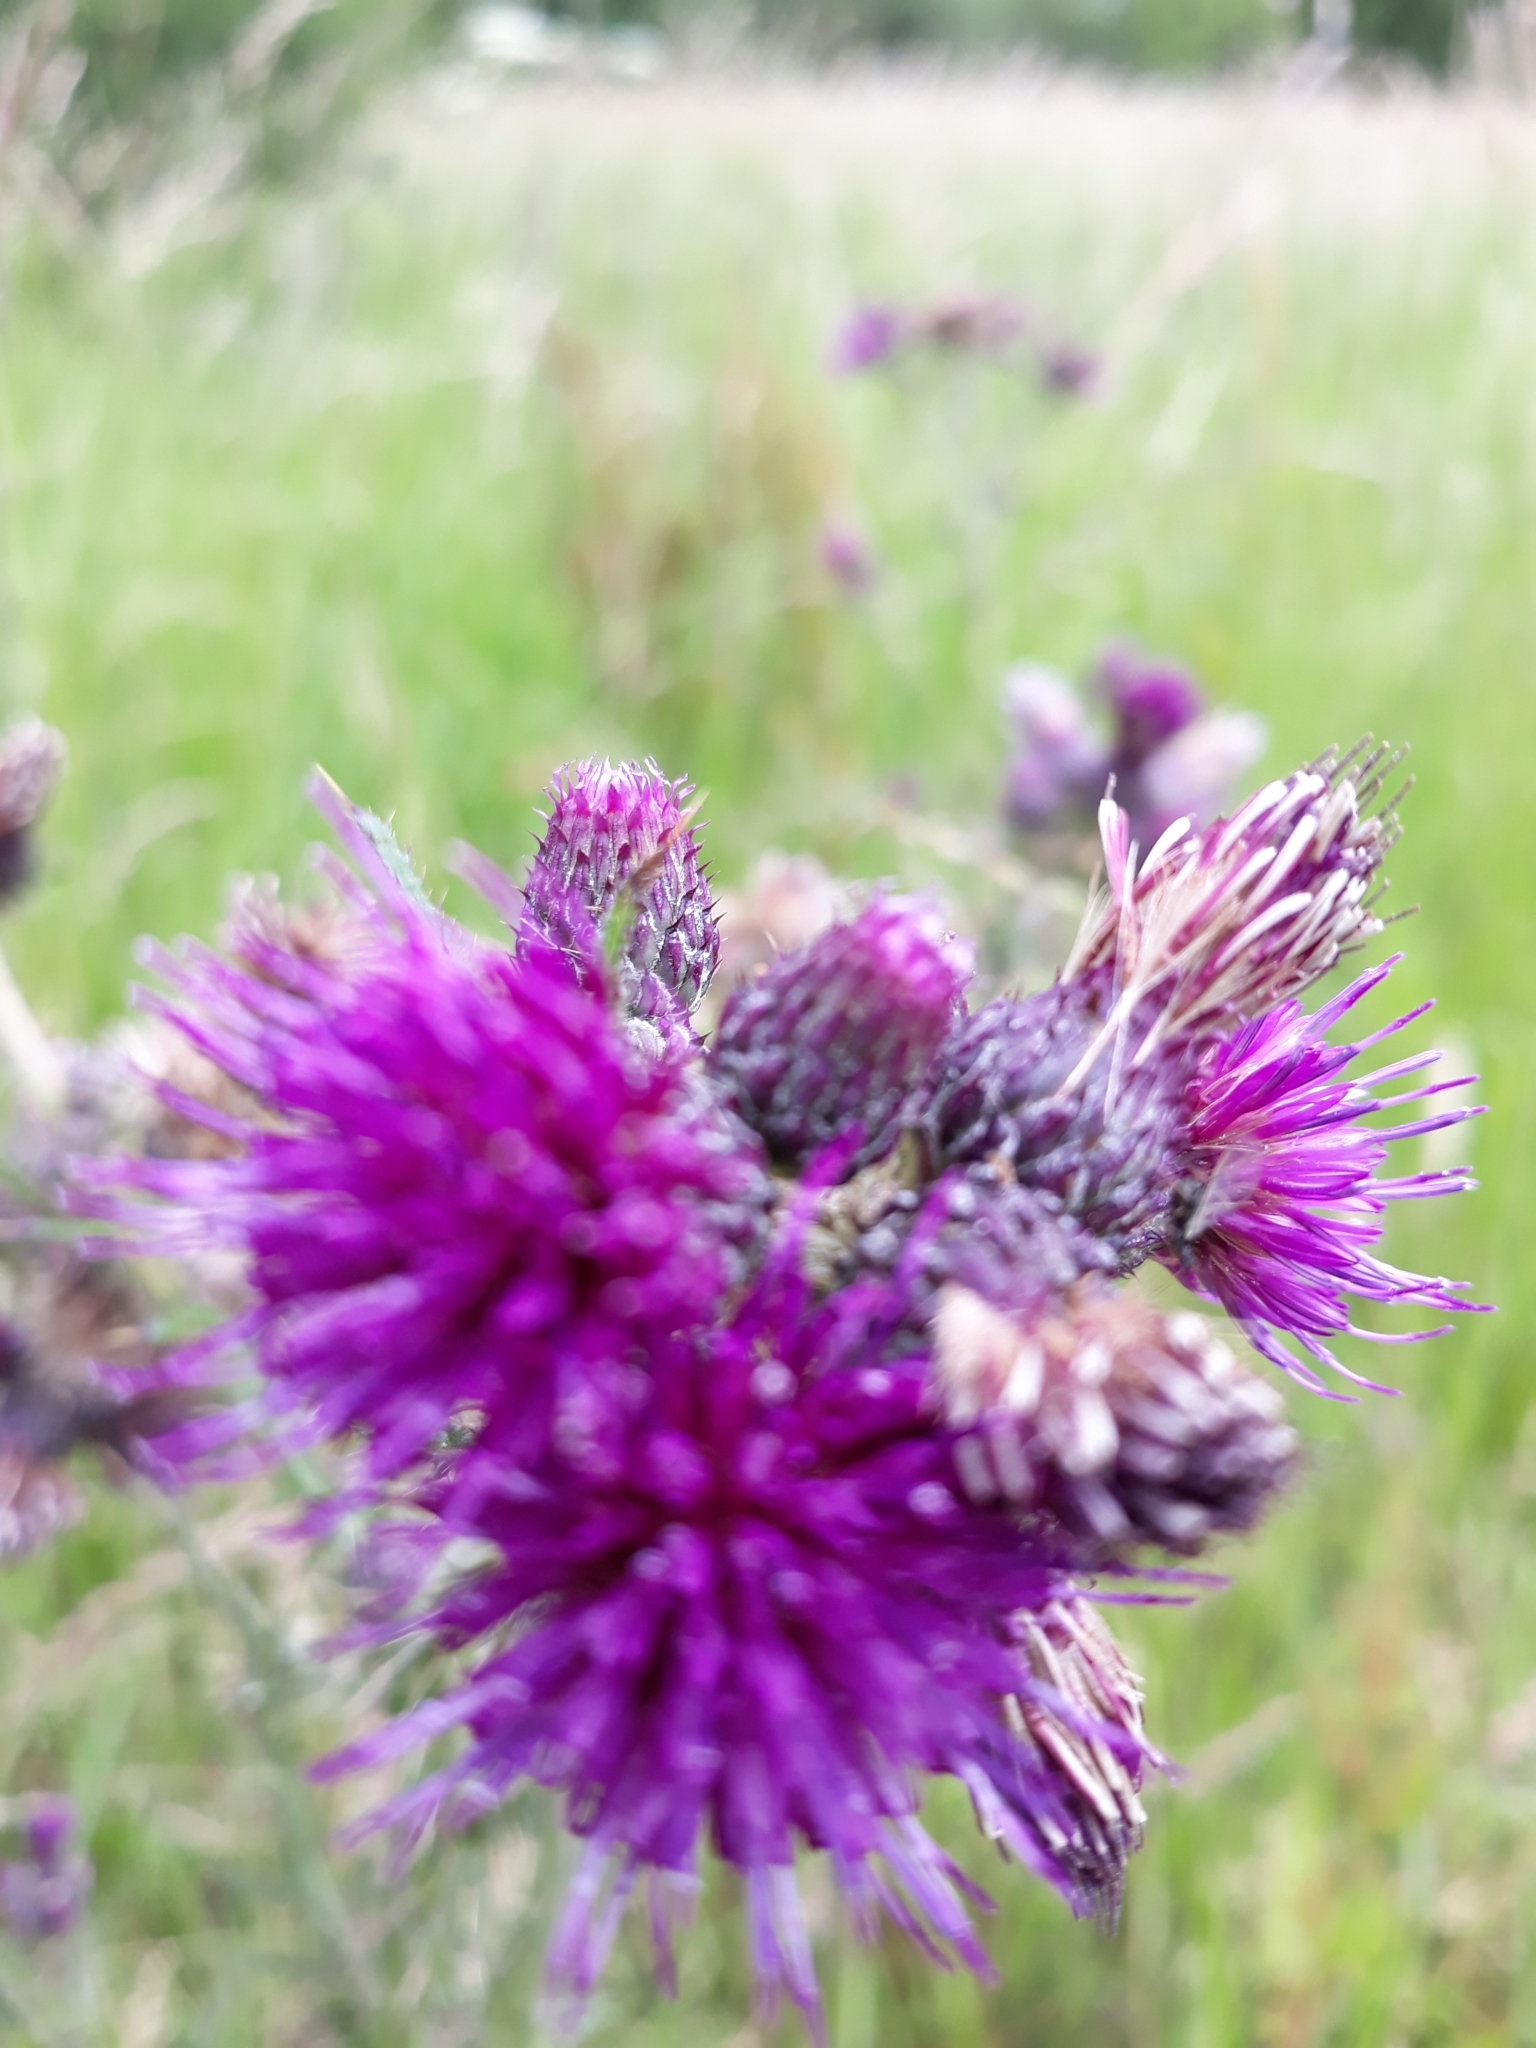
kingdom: Plantae
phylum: Tracheophyta
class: Magnoliopsida
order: Asterales
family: Asteraceae
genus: Cirsium
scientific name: Cirsium palustre
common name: Marsh thistle
